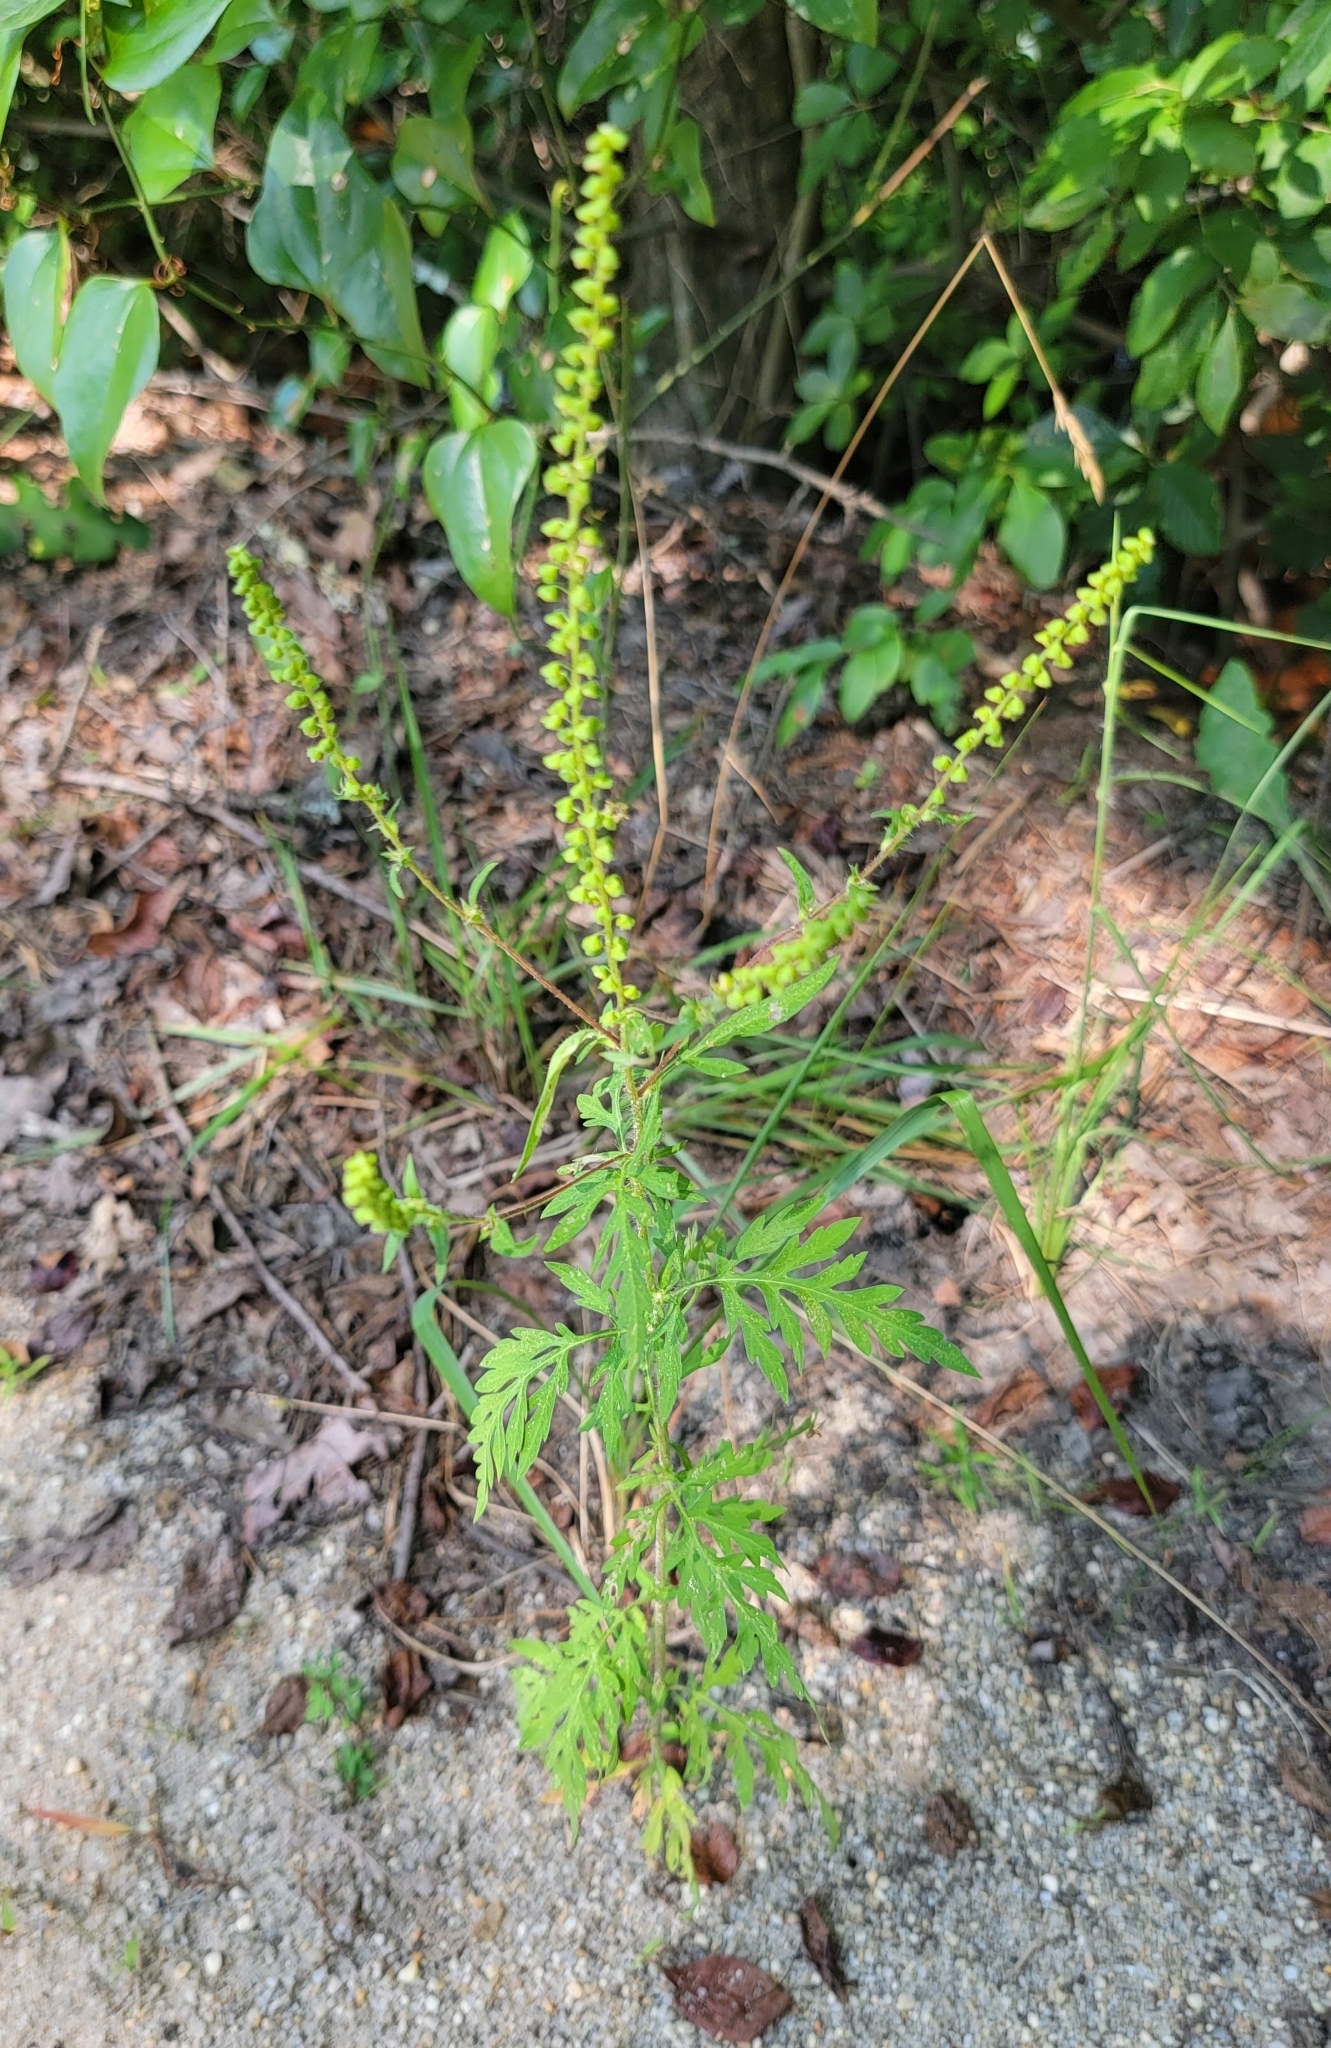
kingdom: Plantae
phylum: Tracheophyta
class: Magnoliopsida
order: Asterales
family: Asteraceae
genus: Ambrosia
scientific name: Ambrosia artemisiifolia
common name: Annual ragweed
